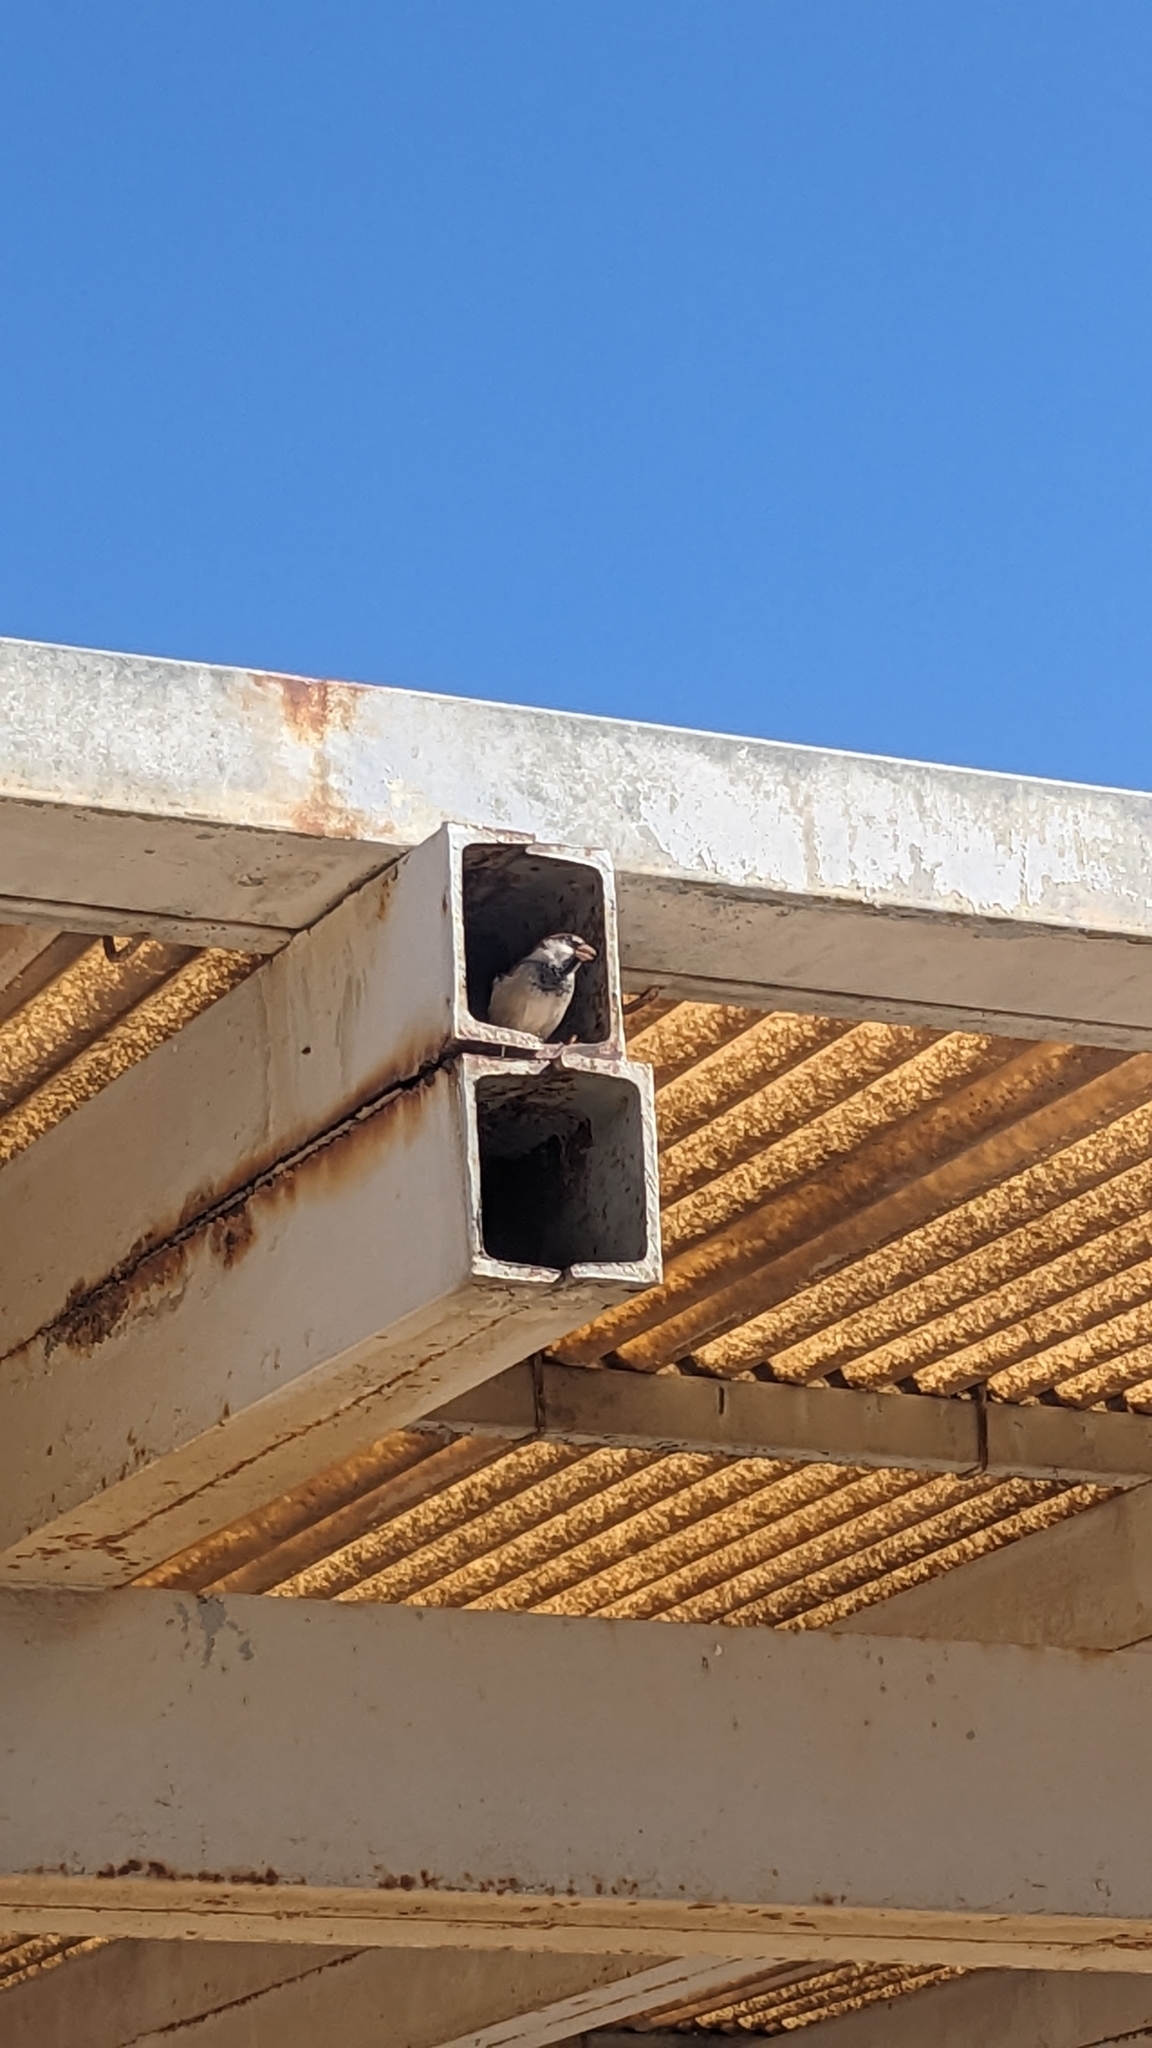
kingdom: Animalia
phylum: Chordata
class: Aves
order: Passeriformes
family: Passeridae
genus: Passer
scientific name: Passer italiae
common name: Italian sparrow
